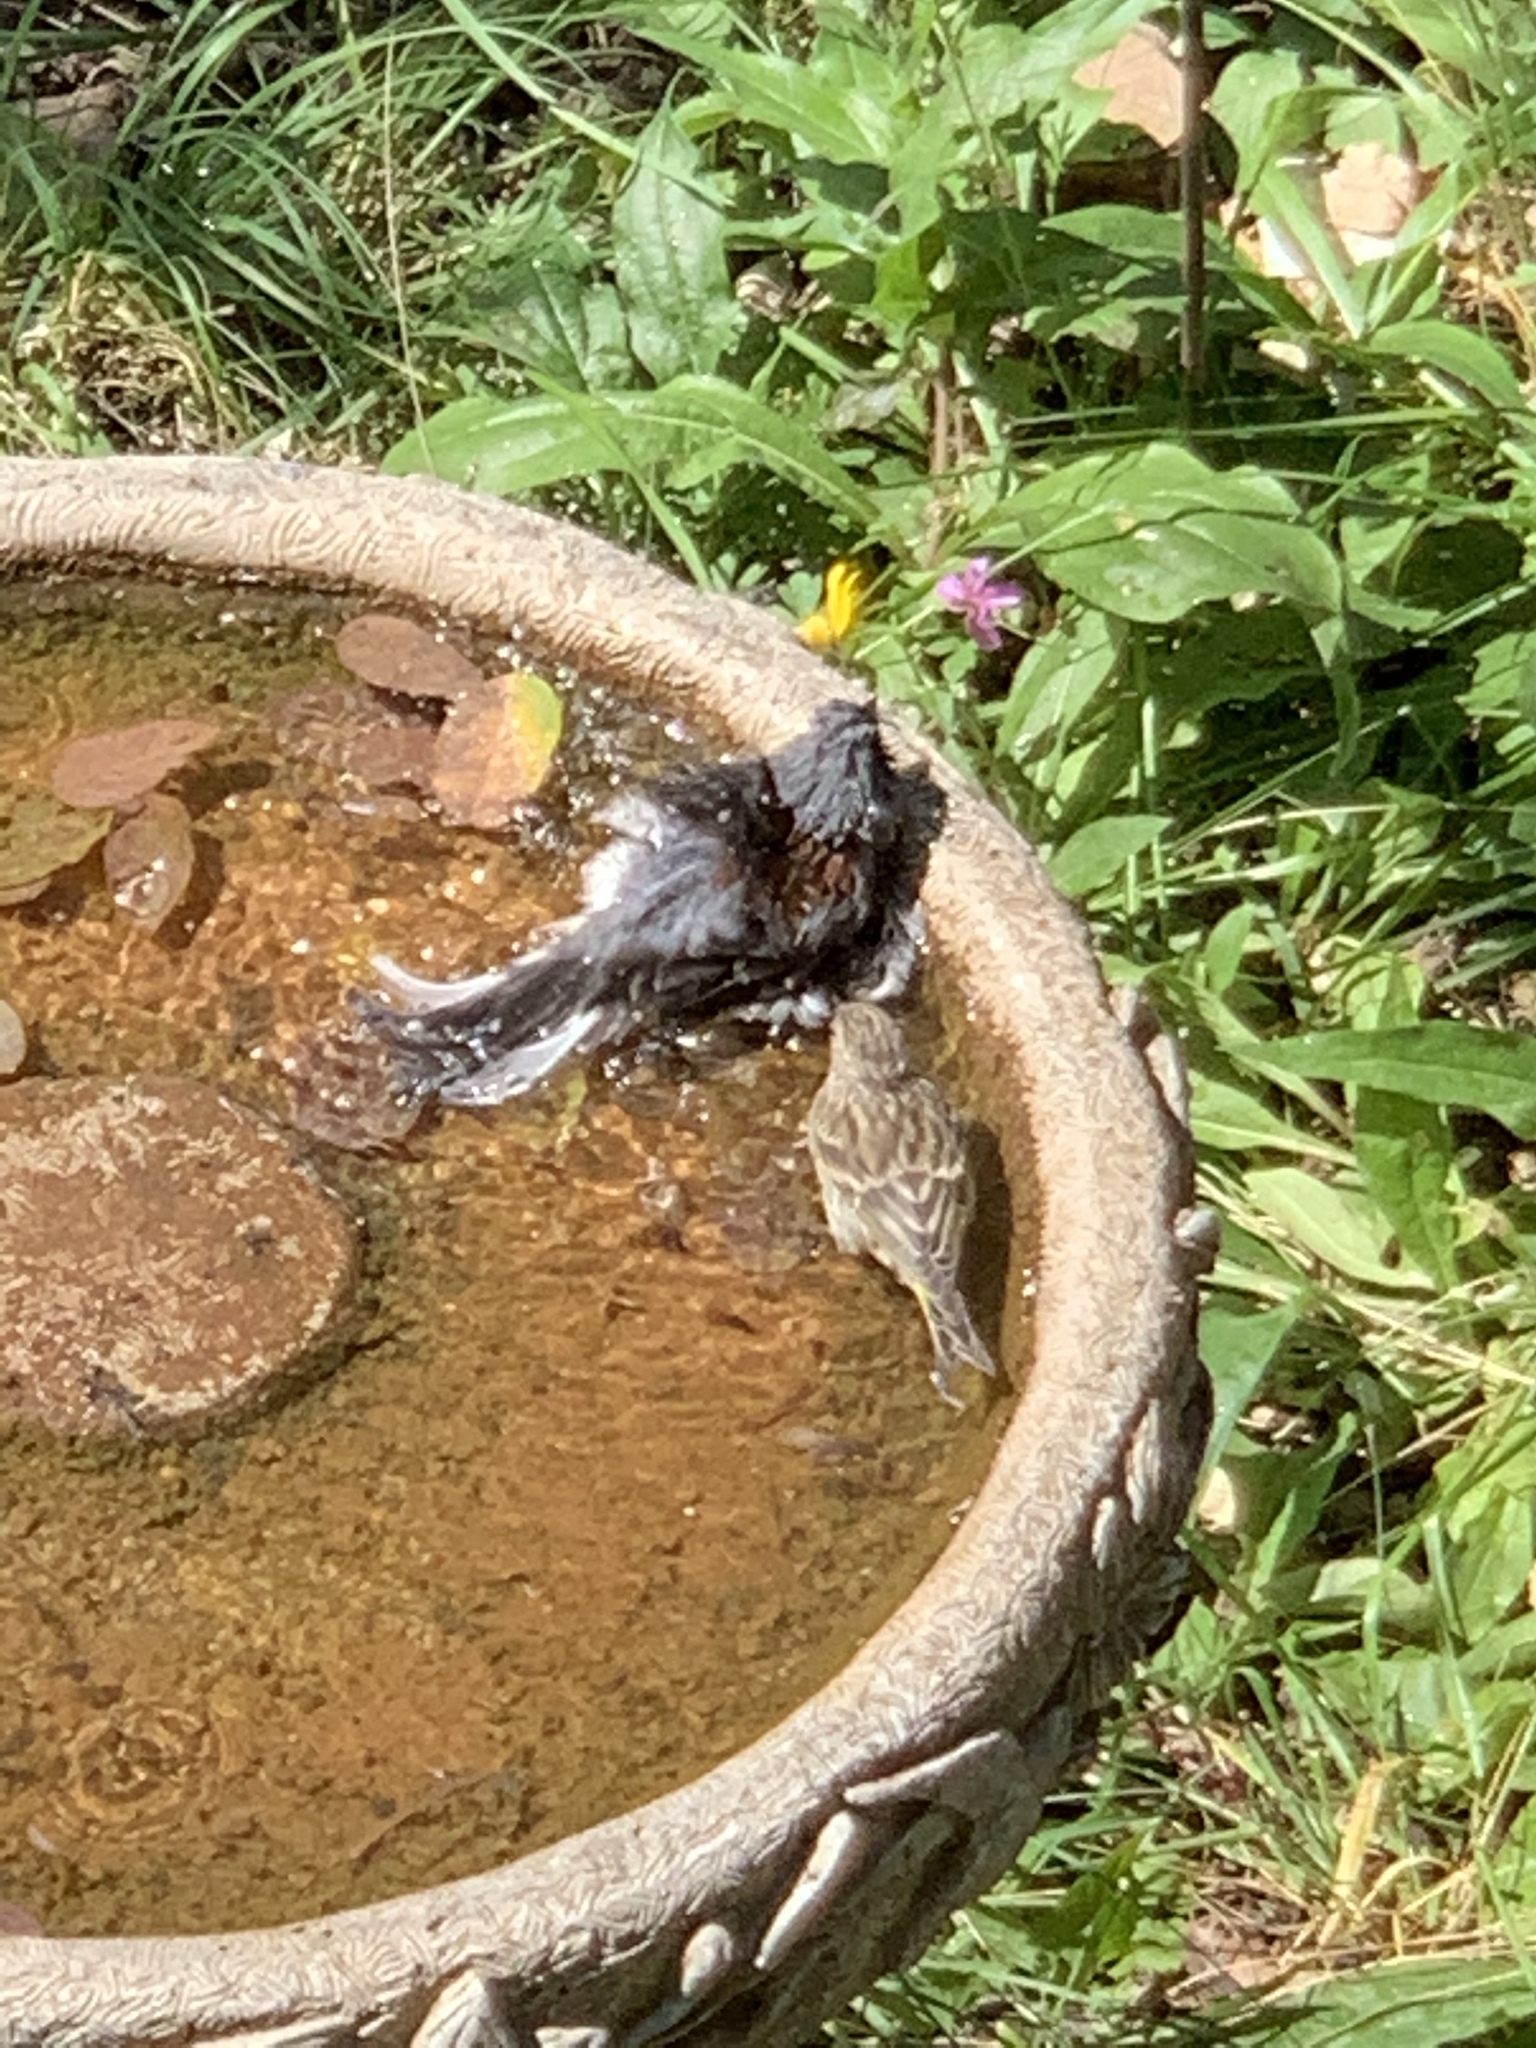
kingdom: Animalia
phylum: Chordata
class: Aves
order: Passeriformes
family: Passerellidae
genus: Junco
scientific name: Junco hyemalis
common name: Dark-eyed junco
